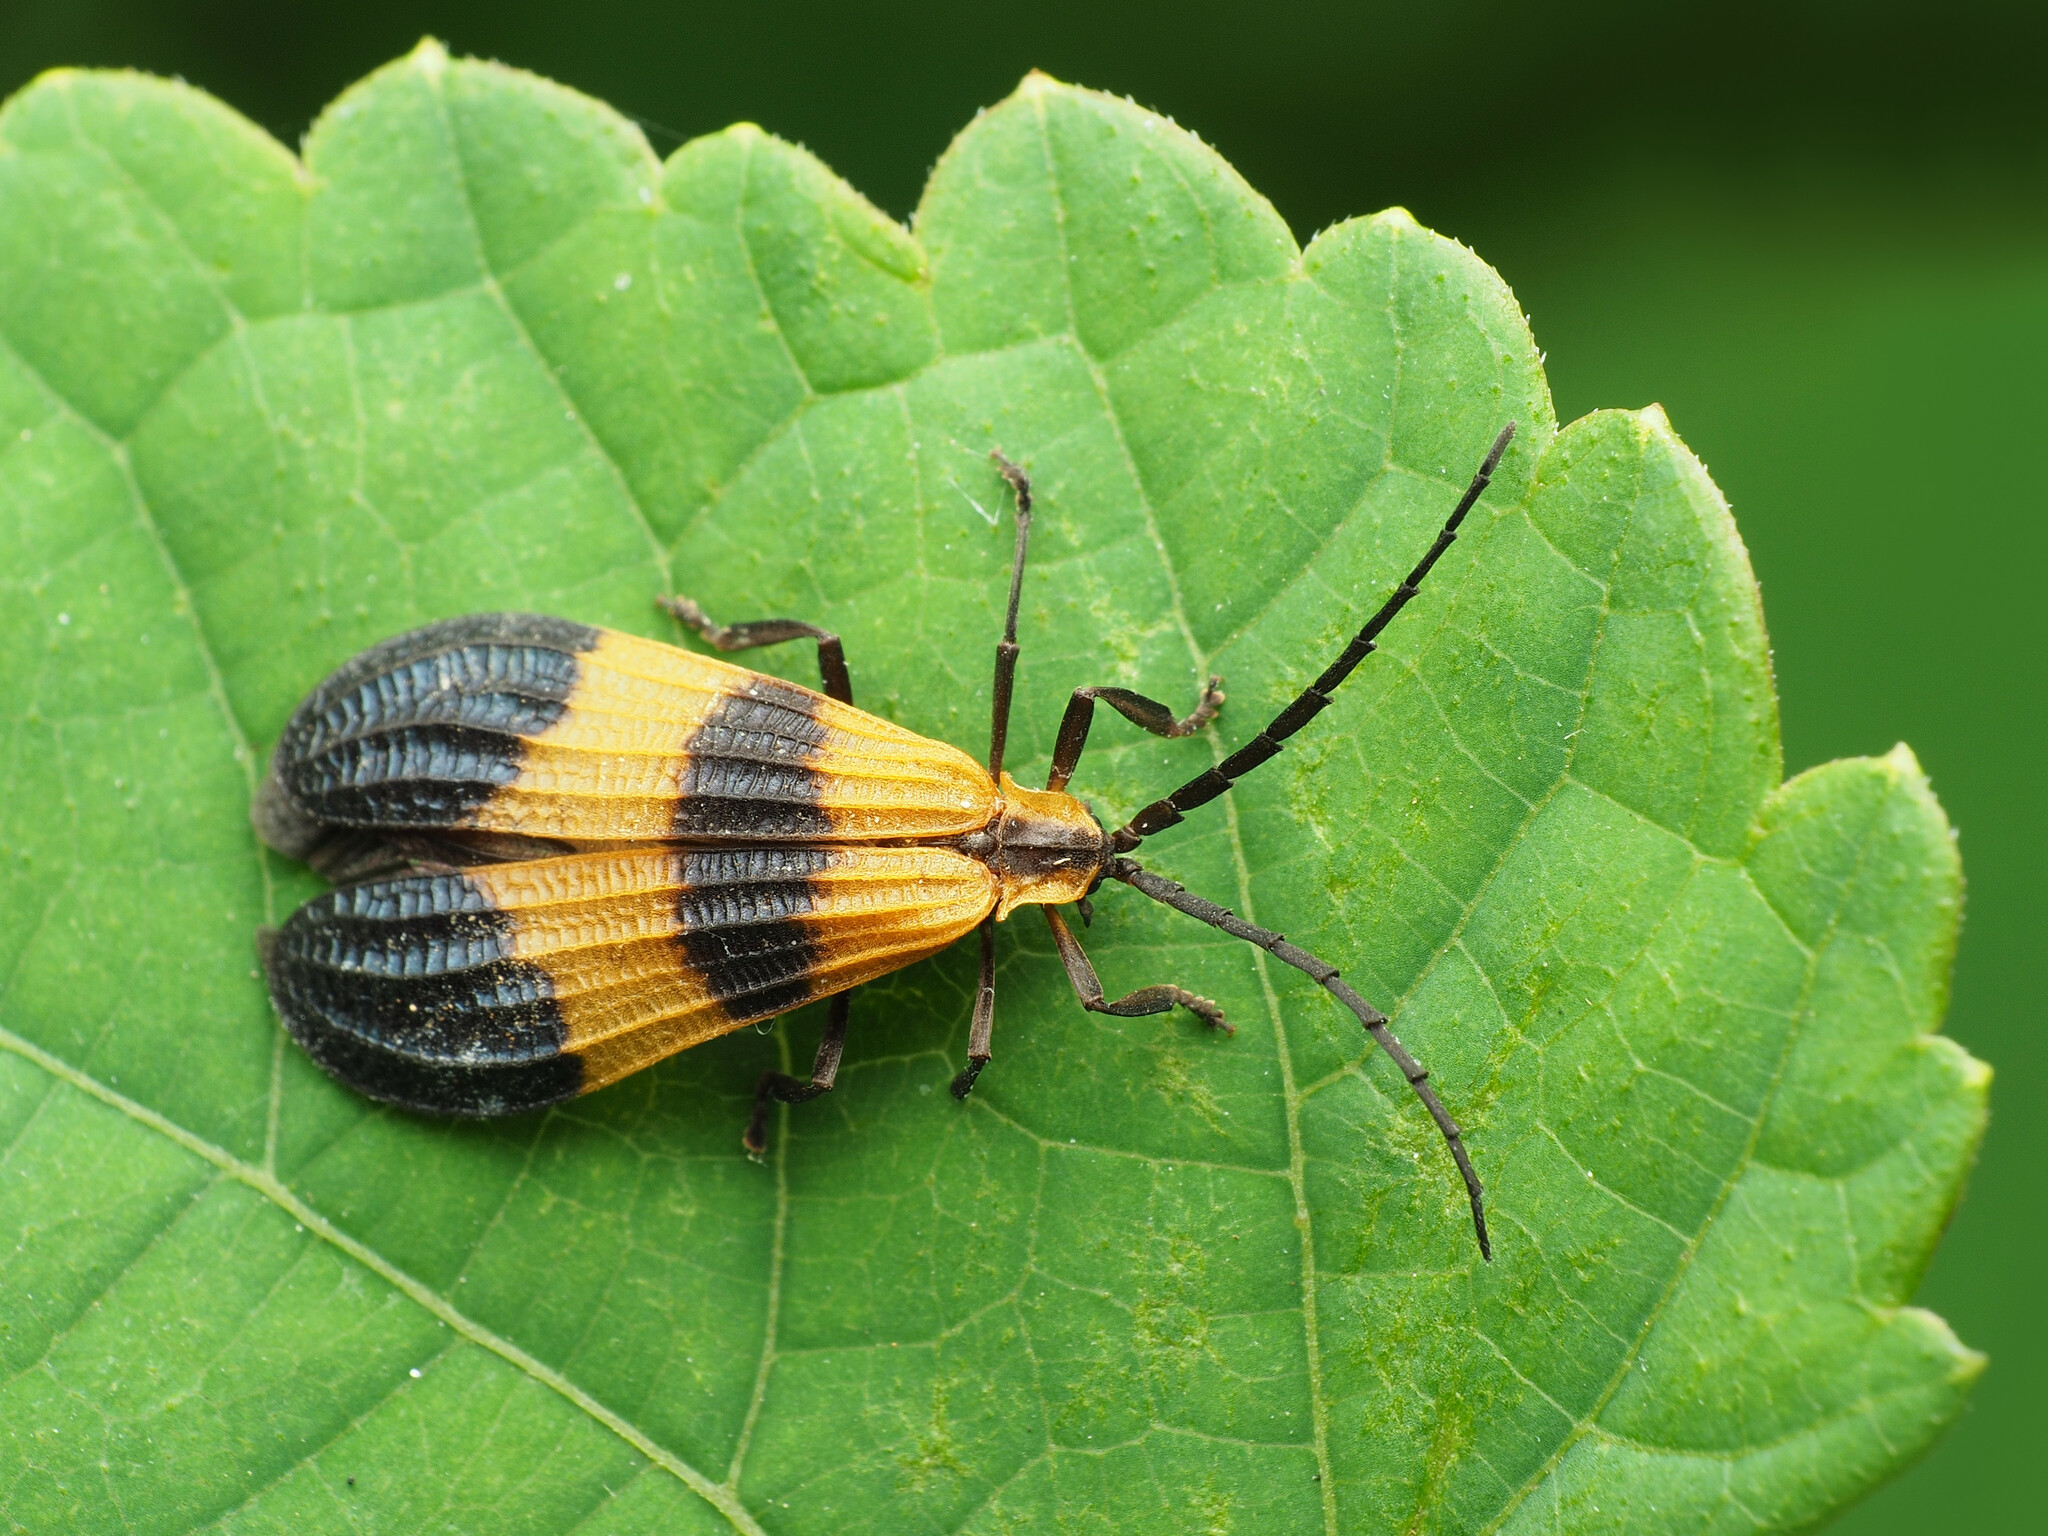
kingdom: Animalia
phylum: Arthropoda
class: Insecta
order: Coleoptera
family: Lycidae
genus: Calopteron
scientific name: Calopteron terminale
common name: End band net-winged beetle
